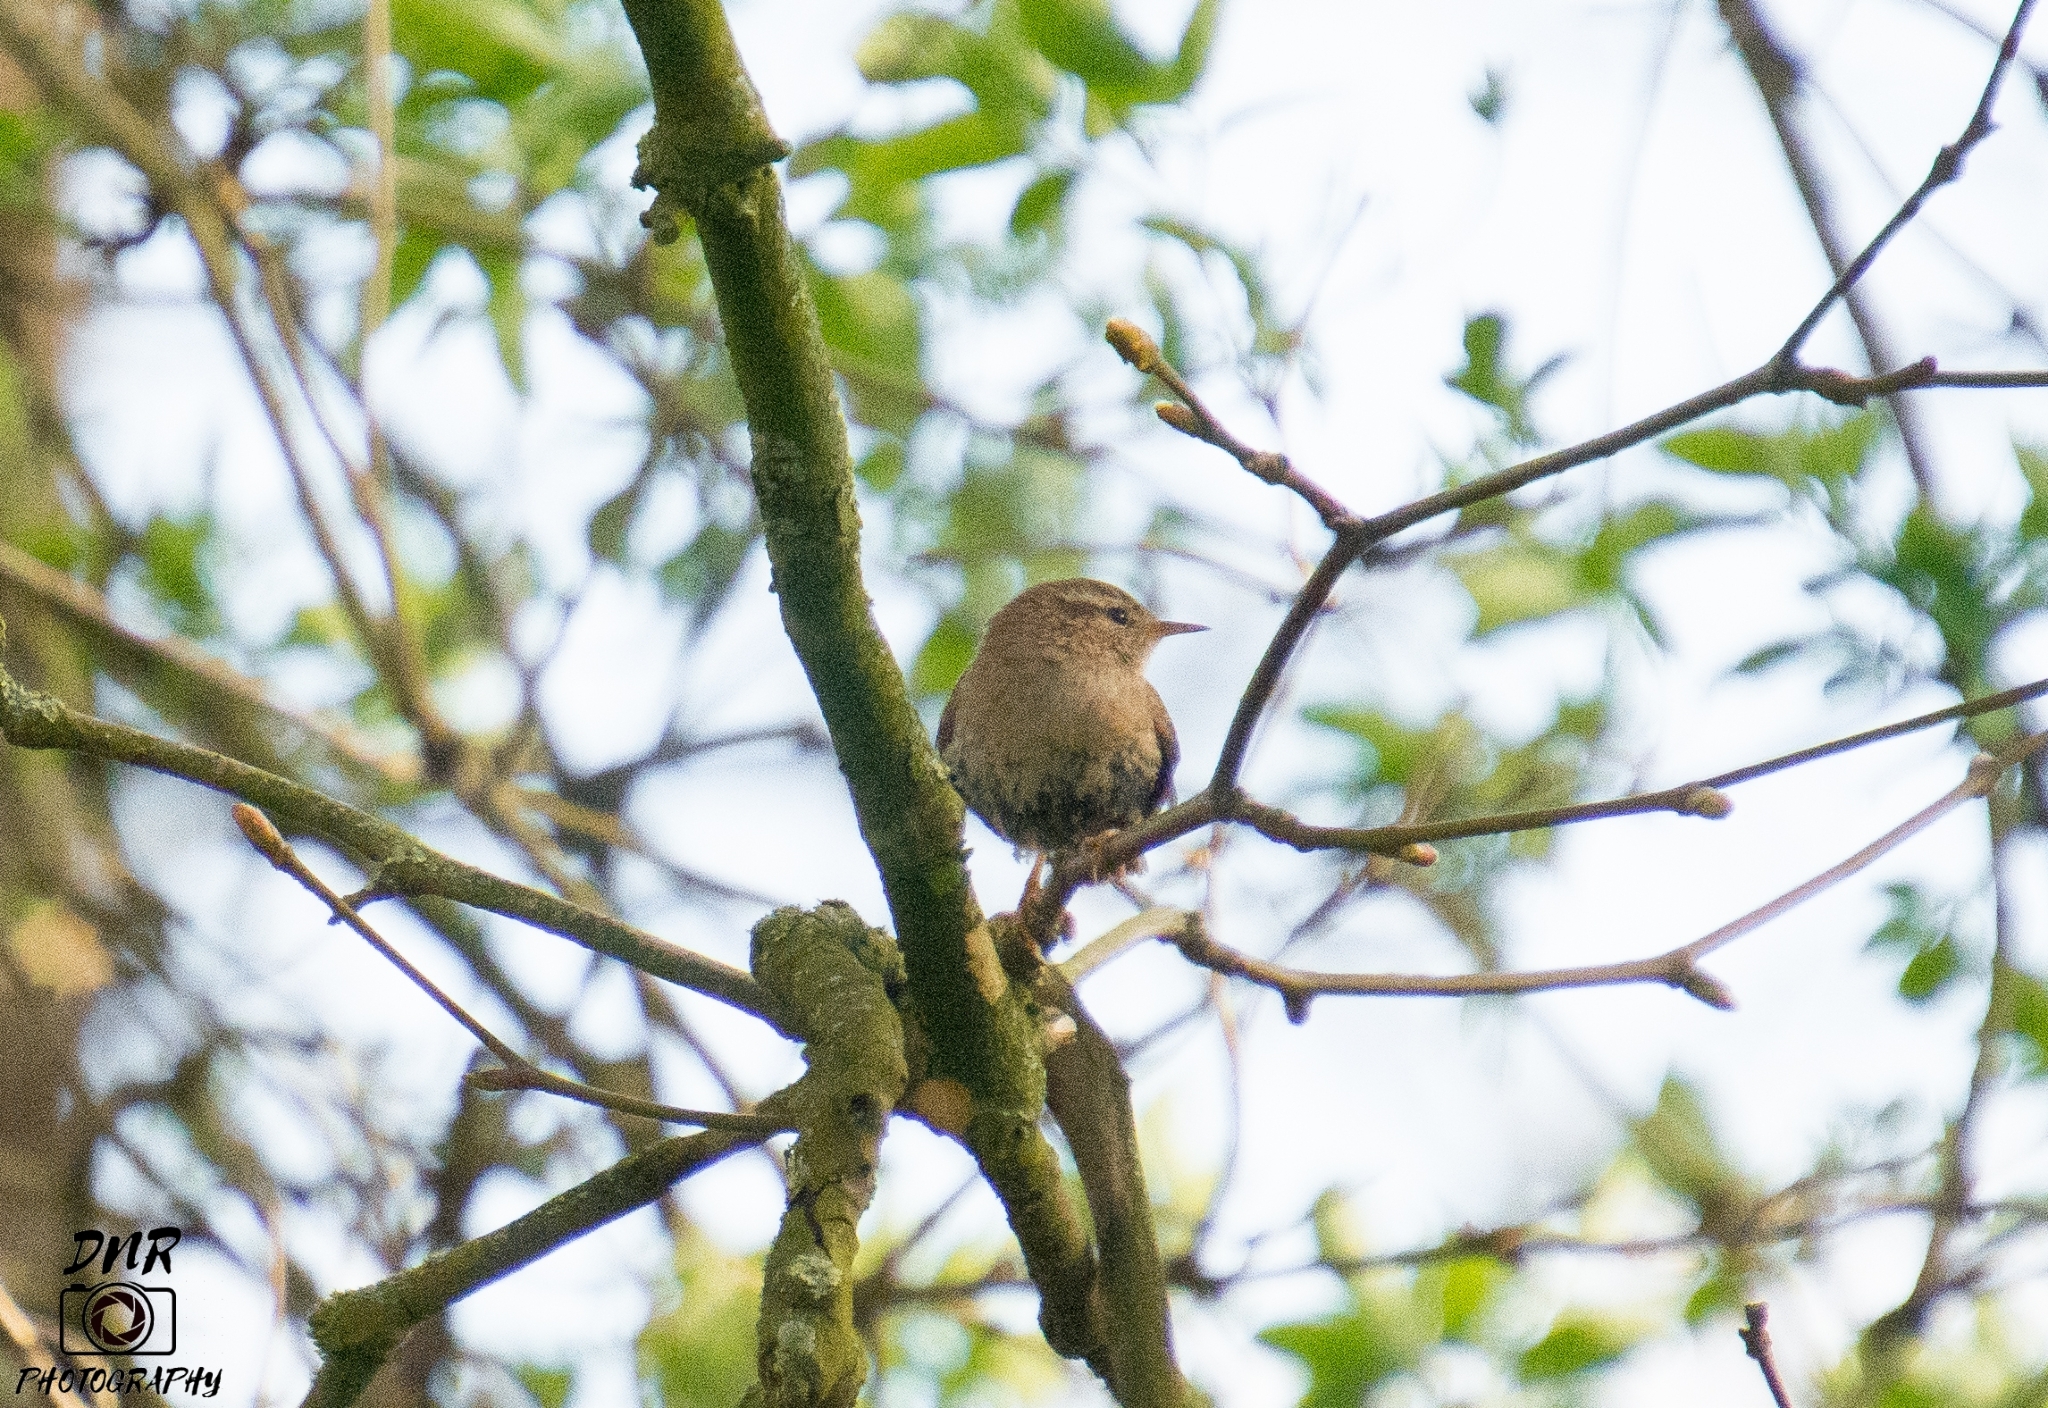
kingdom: Animalia
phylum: Chordata
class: Aves
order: Passeriformes
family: Troglodytidae
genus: Troglodytes
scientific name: Troglodytes troglodytes
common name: Eurasian wren
